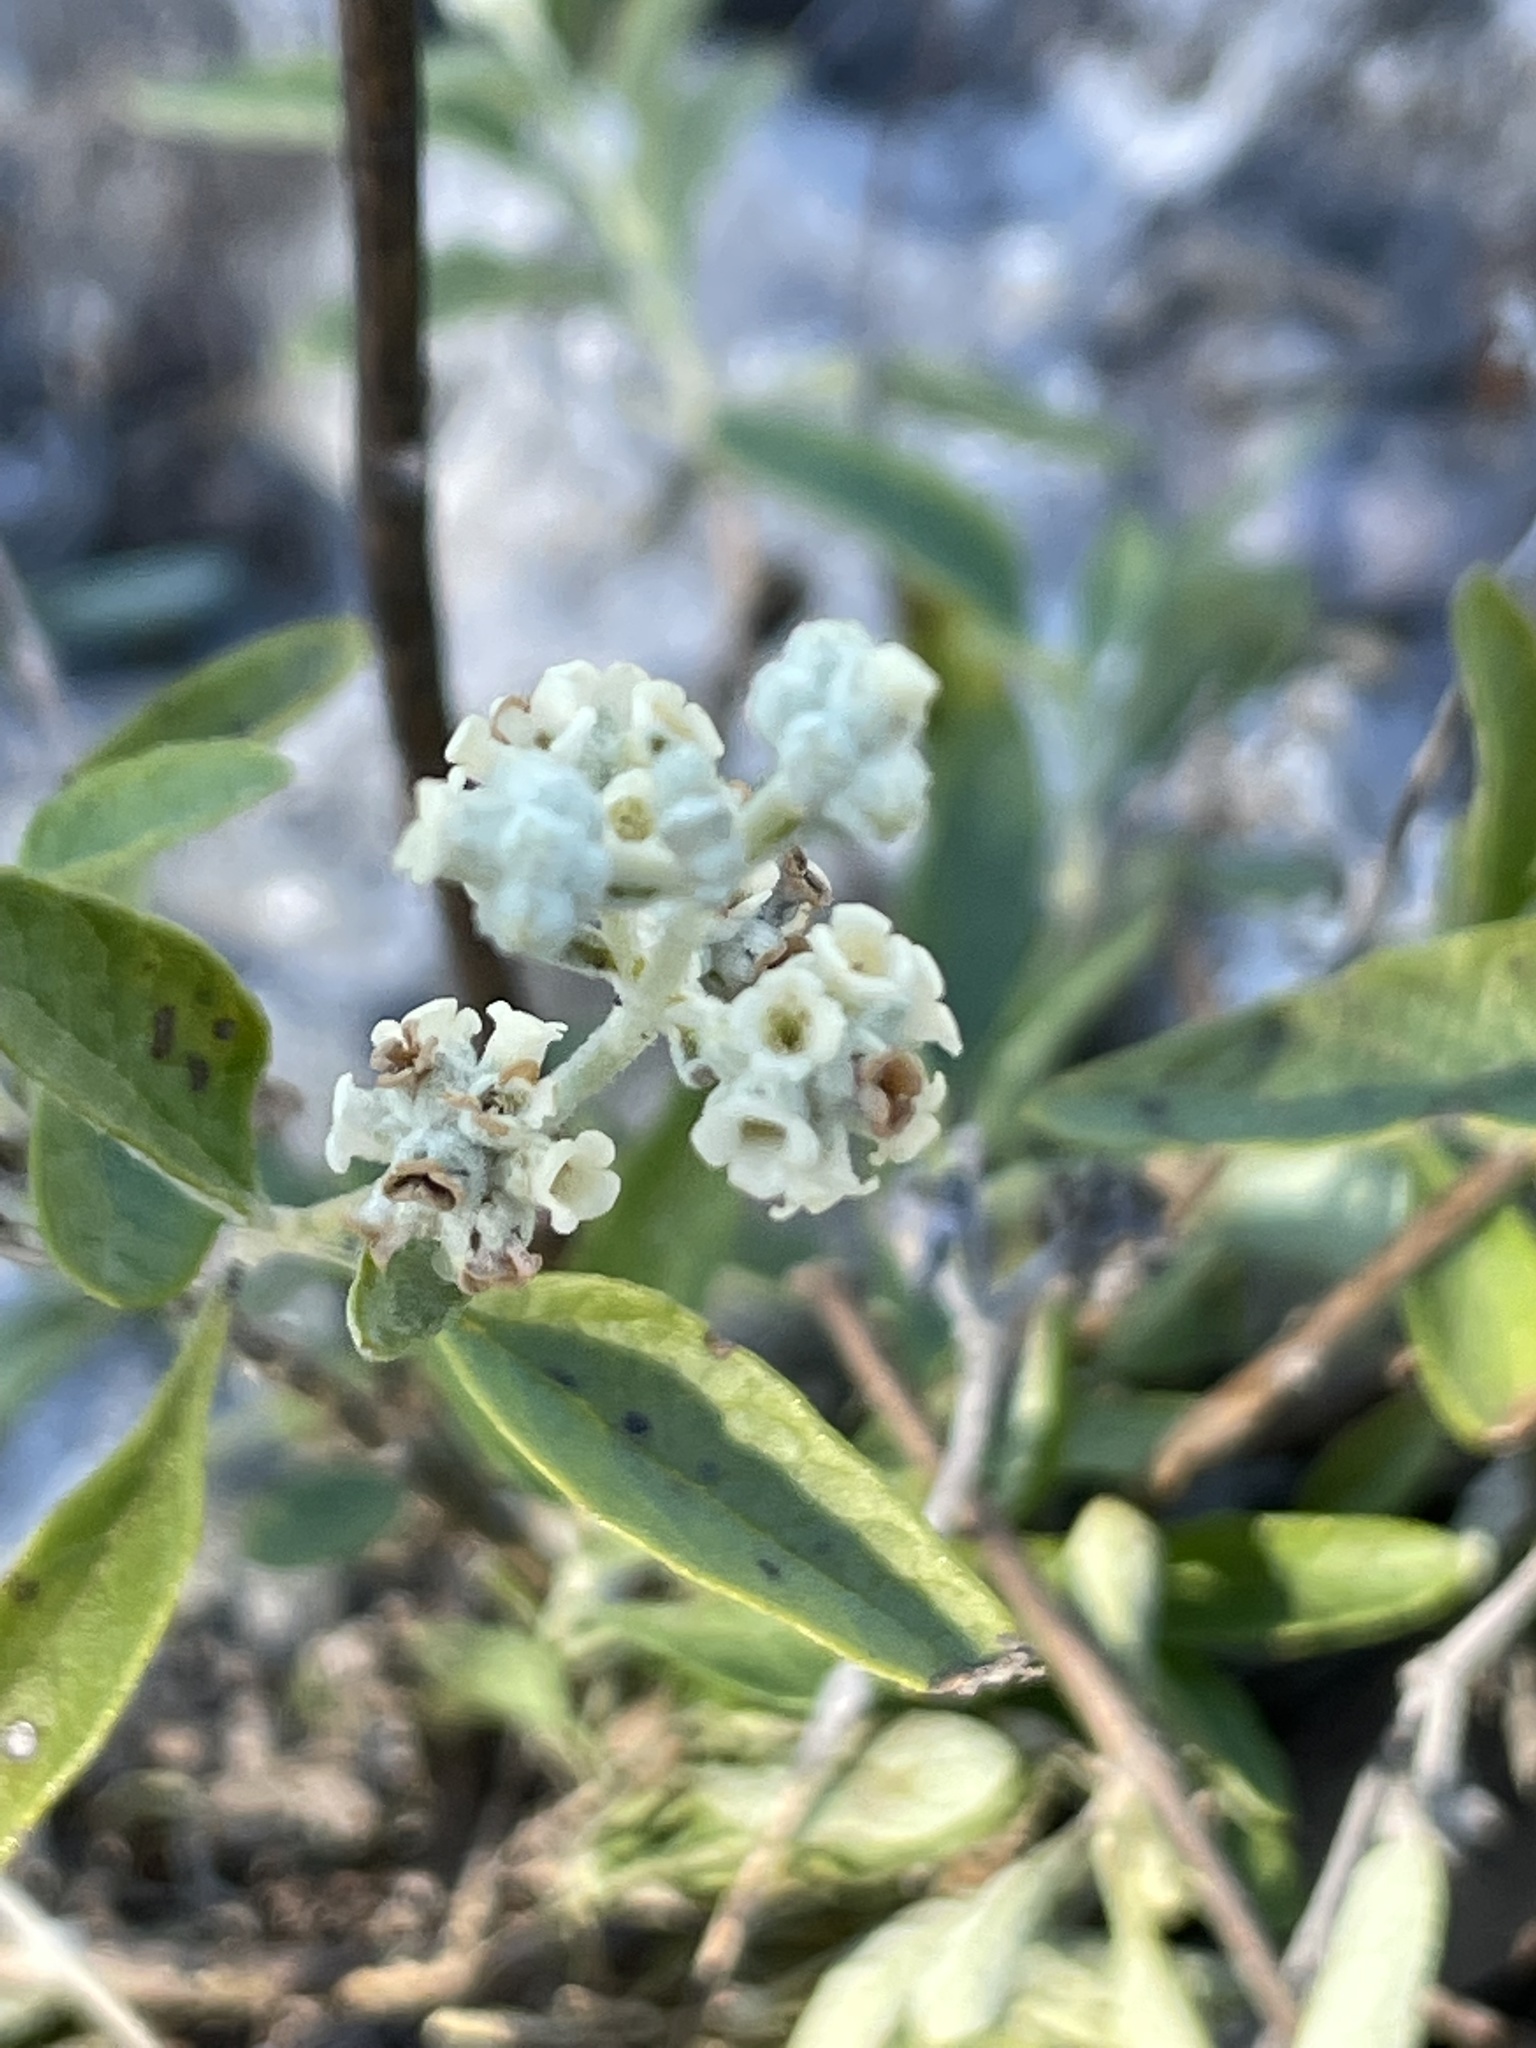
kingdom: Plantae
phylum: Tracheophyta
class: Magnoliopsida
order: Lamiales
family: Scrophulariaceae
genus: Buddleja
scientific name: Buddleja racemosa
